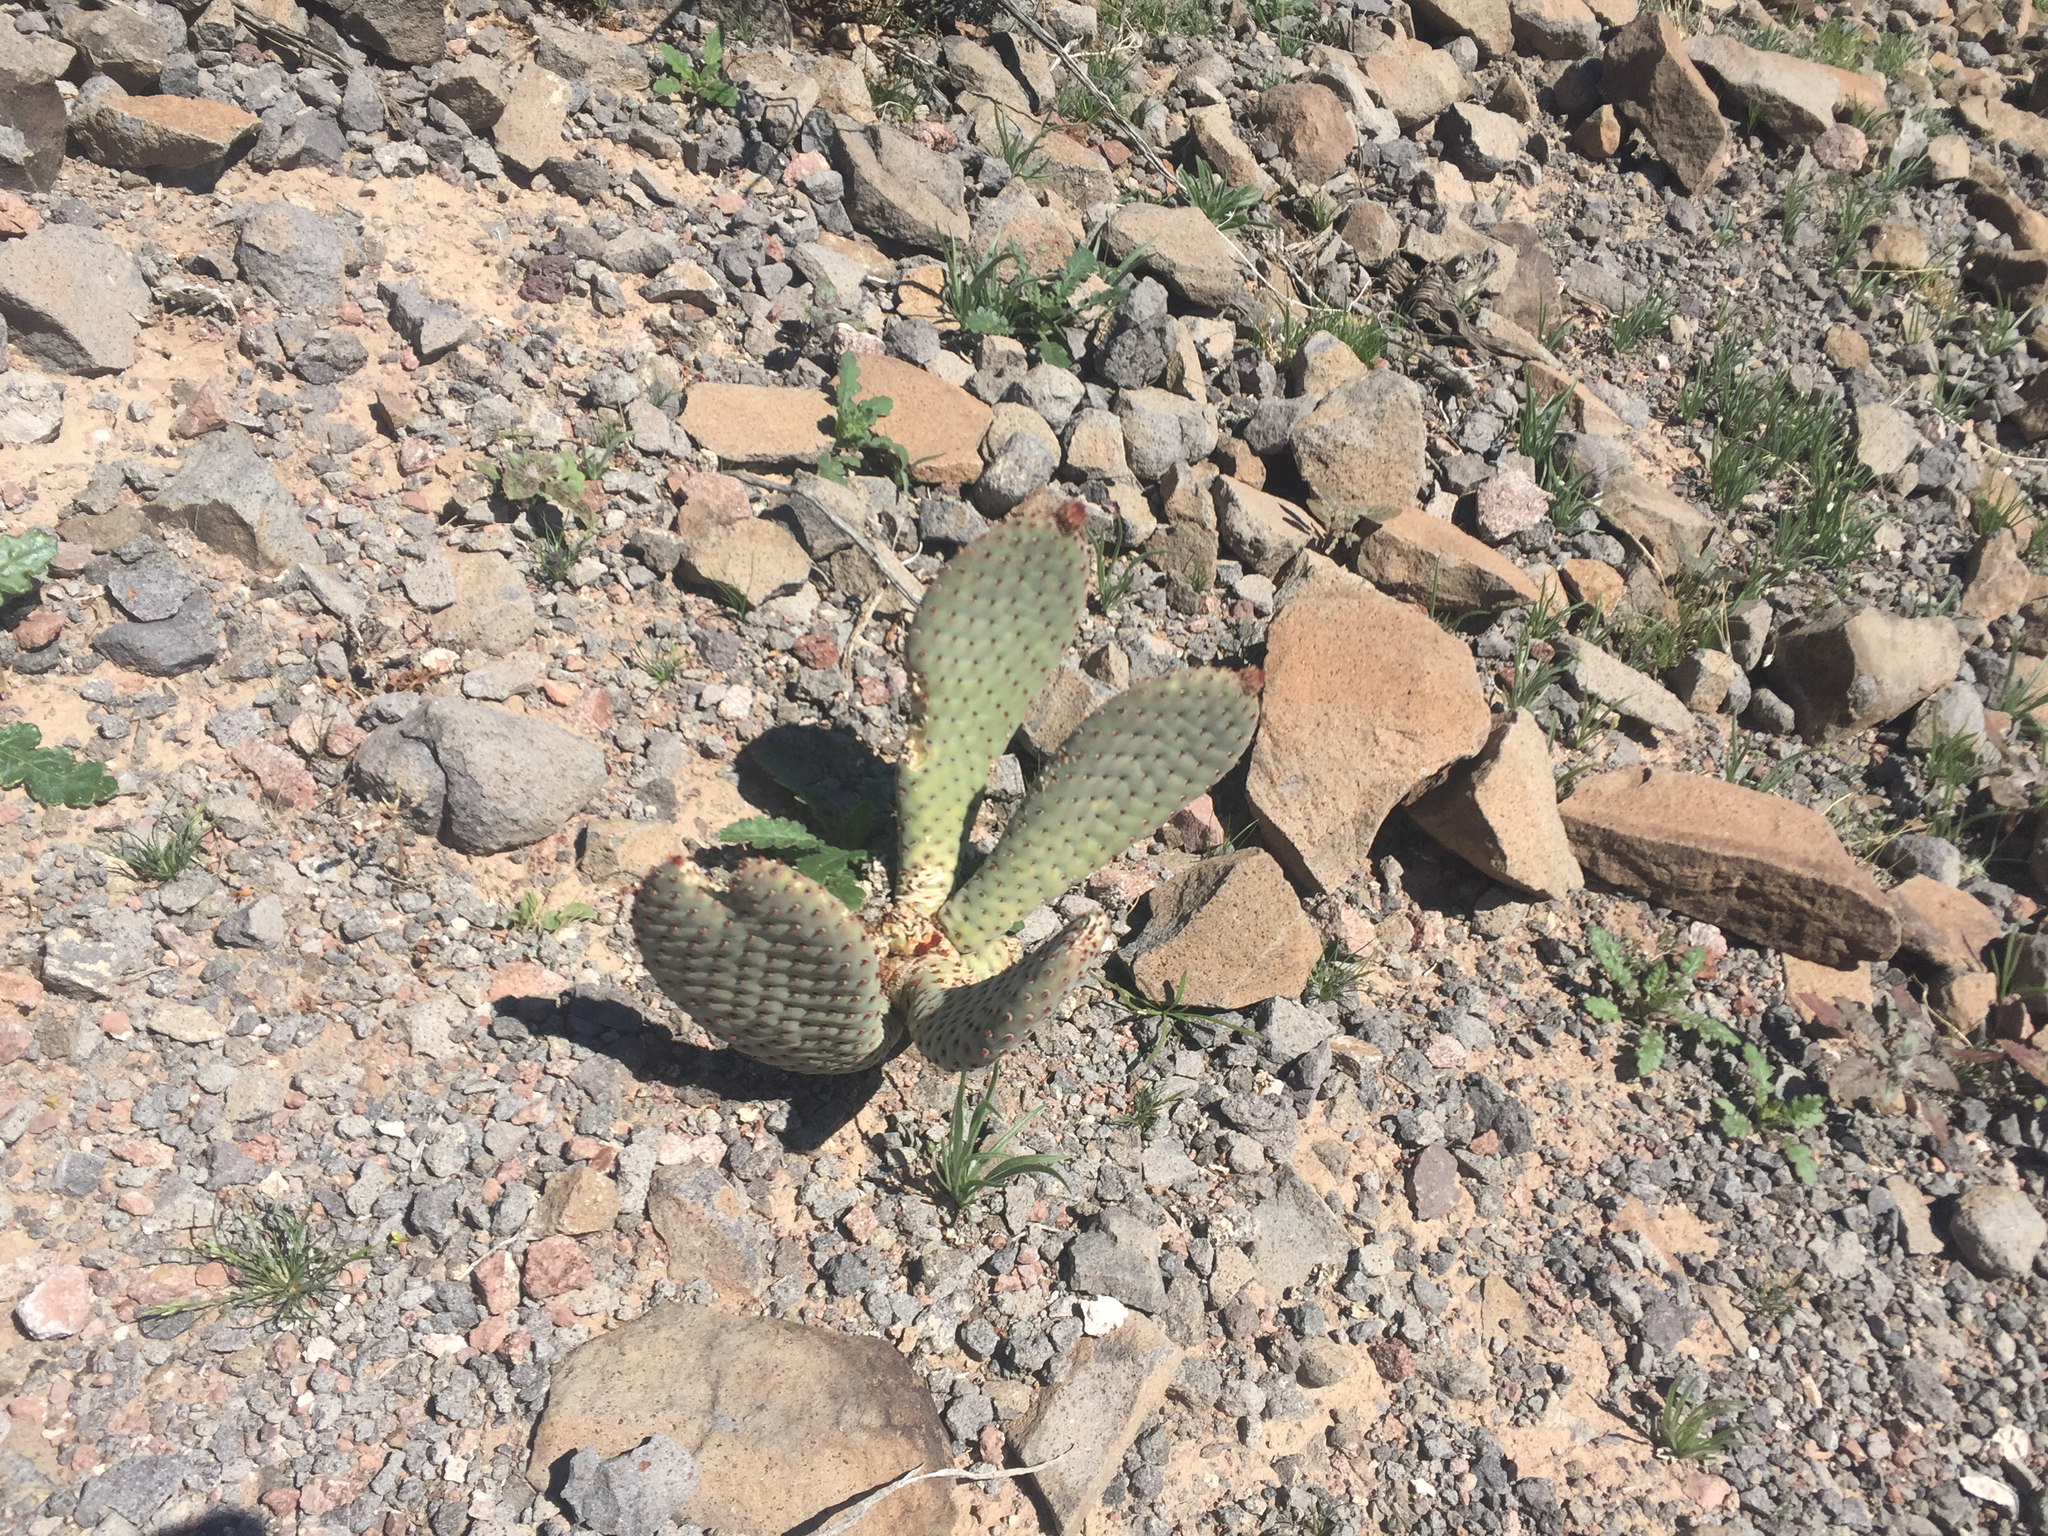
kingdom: Plantae
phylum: Tracheophyta
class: Magnoliopsida
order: Caryophyllales
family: Cactaceae
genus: Opuntia
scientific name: Opuntia basilaris
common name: Beavertail prickly-pear
